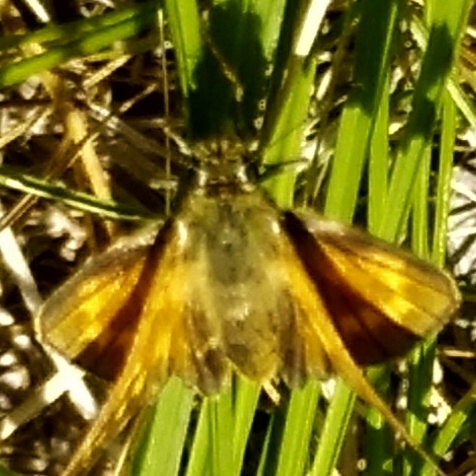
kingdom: Animalia
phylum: Arthropoda
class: Insecta
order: Lepidoptera
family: Hesperiidae
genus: Ochlodes
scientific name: Ochlodes venata
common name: Large skipper
